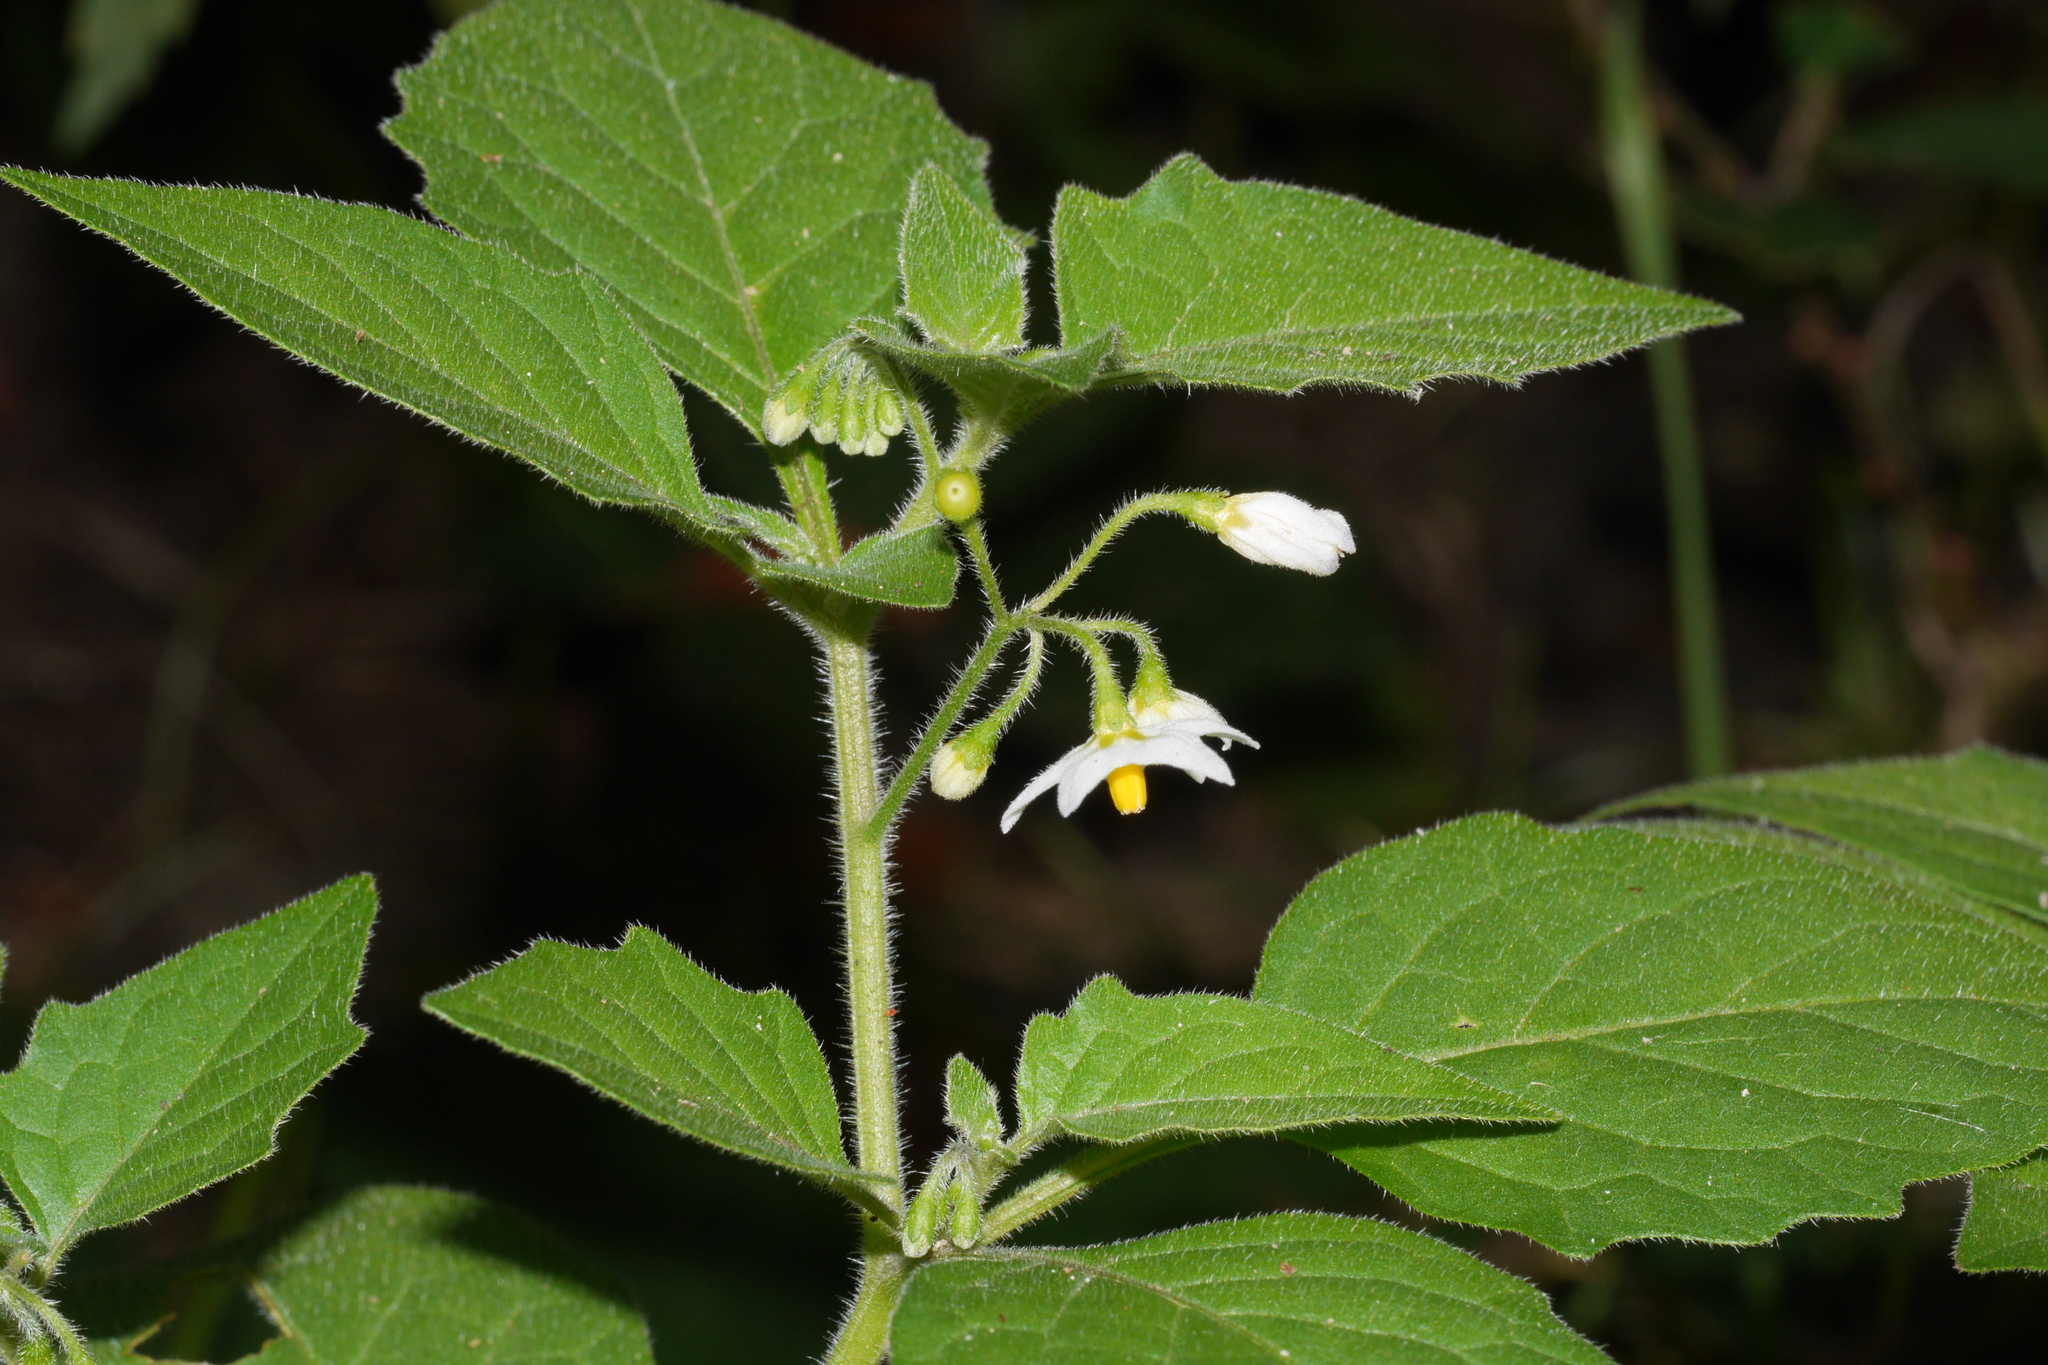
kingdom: Plantae
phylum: Tracheophyta
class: Magnoliopsida
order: Solanales
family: Solanaceae
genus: Solanum
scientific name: Solanum nigrum
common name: Black nightshade
